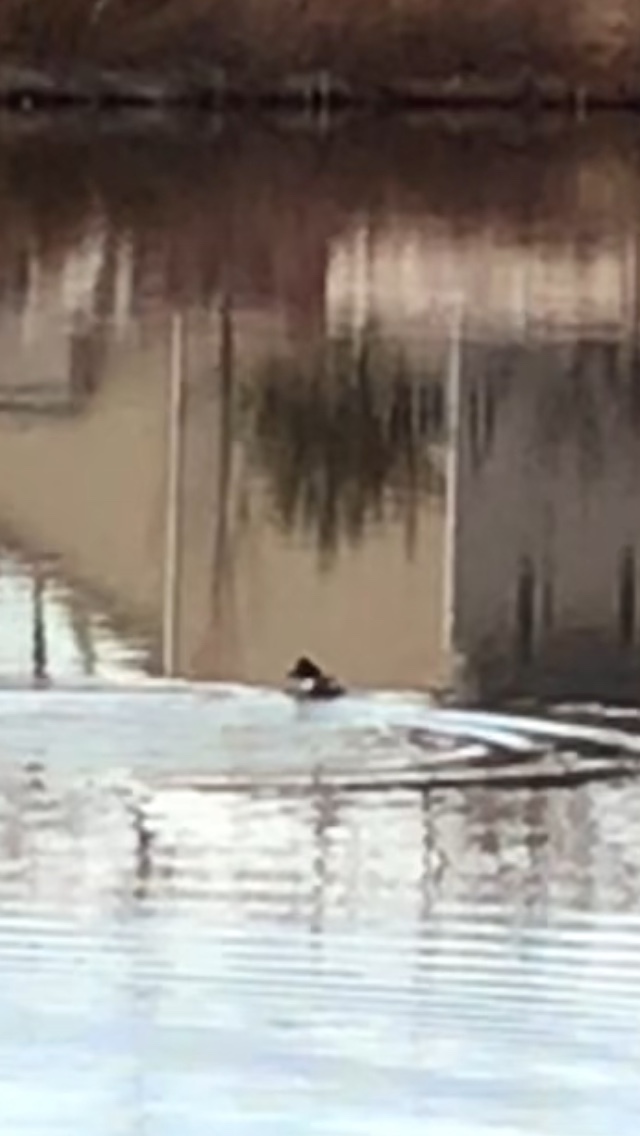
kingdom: Animalia
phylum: Chordata
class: Aves
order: Anseriformes
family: Anatidae
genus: Bucephala
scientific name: Bucephala clangula
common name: Common goldeneye
